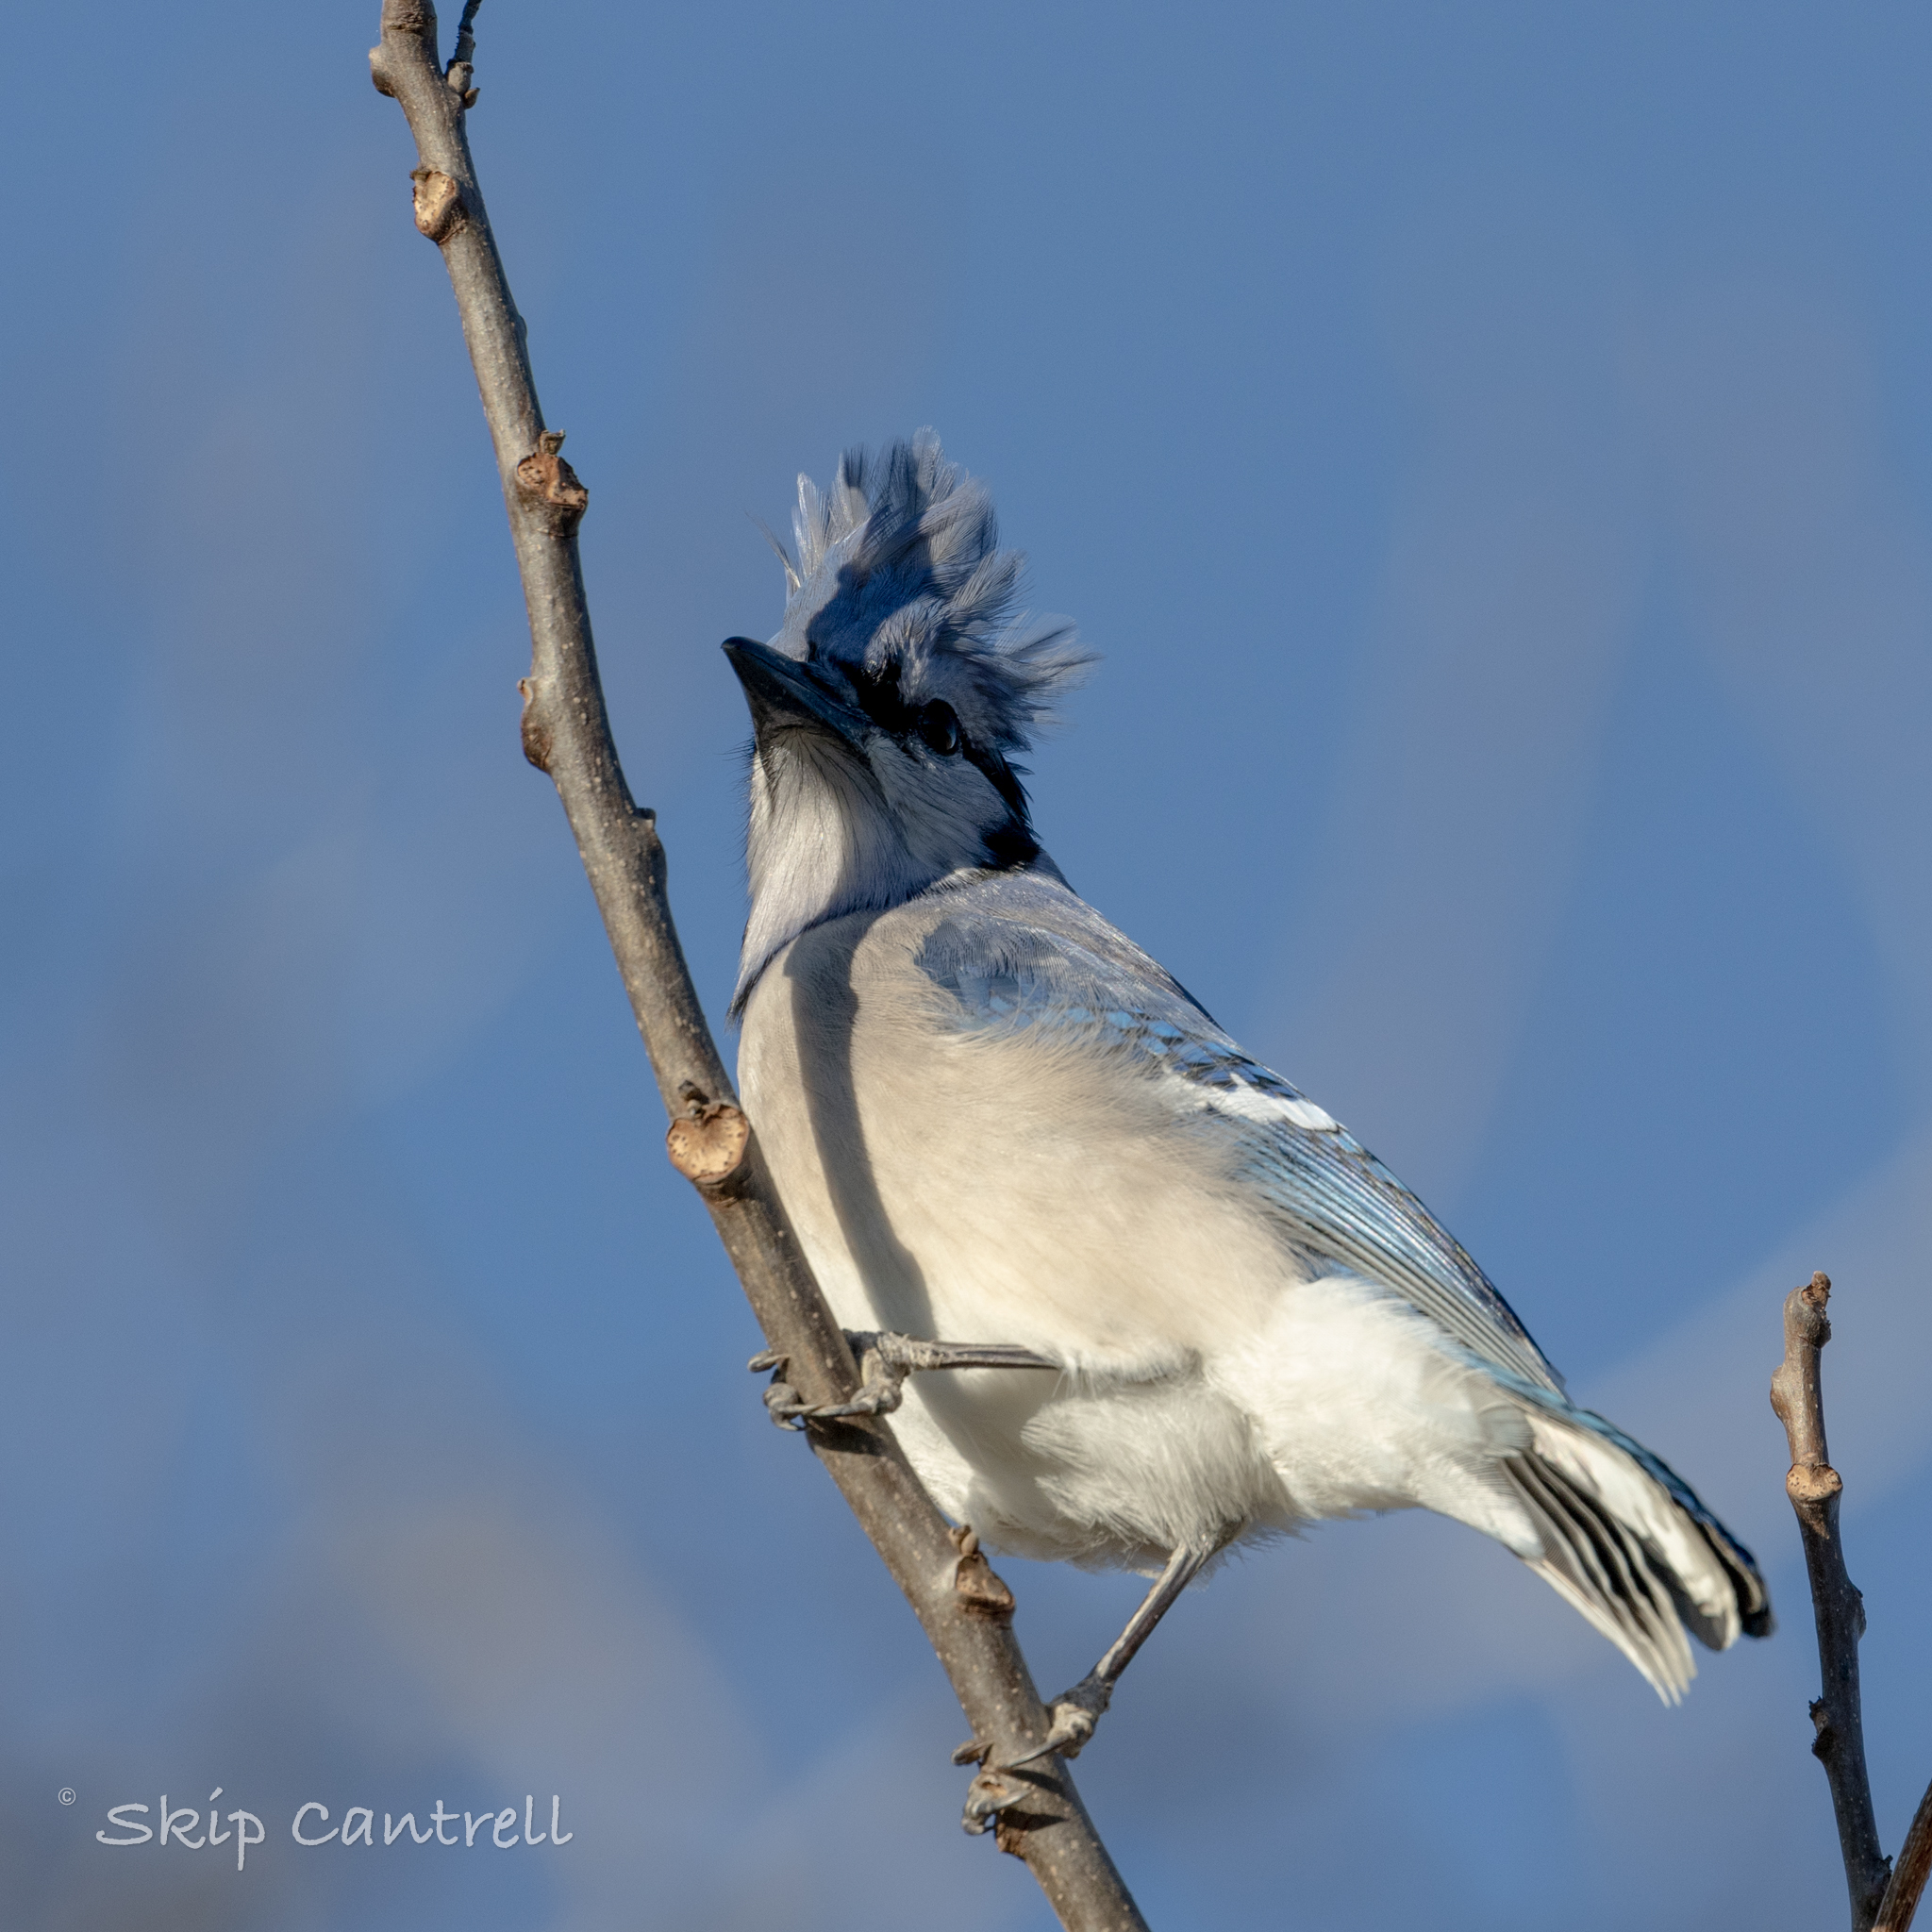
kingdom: Animalia
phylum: Chordata
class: Aves
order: Passeriformes
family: Corvidae
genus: Cyanocitta
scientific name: Cyanocitta cristata
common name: Blue jay
